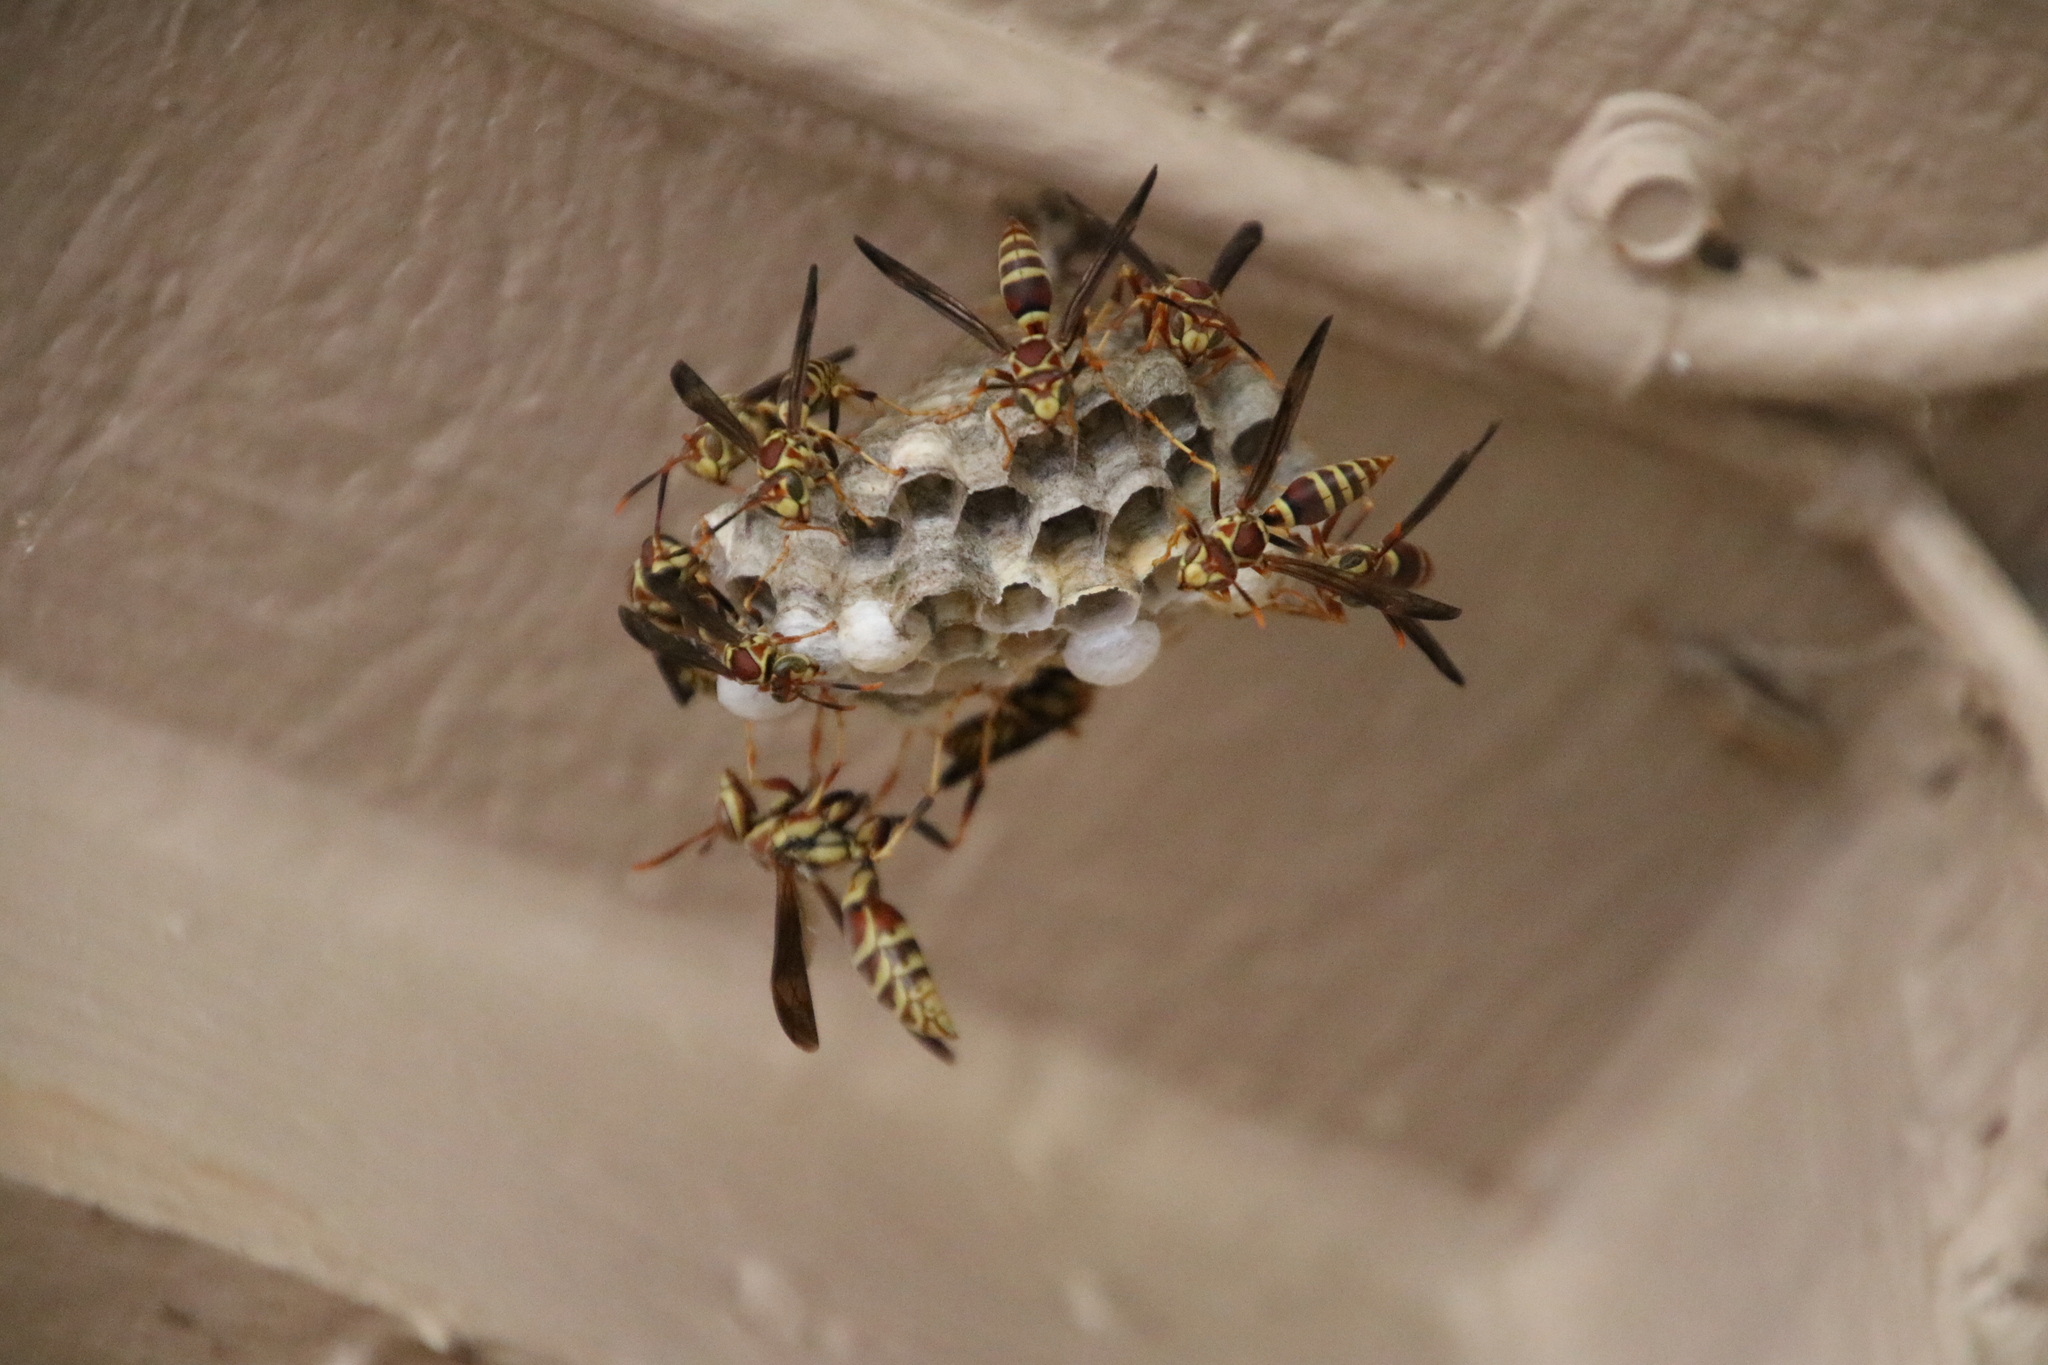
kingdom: Animalia
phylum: Arthropoda
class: Insecta
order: Hymenoptera
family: Eumenidae
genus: Polistes
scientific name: Polistes exclamans
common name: Paper wasp
